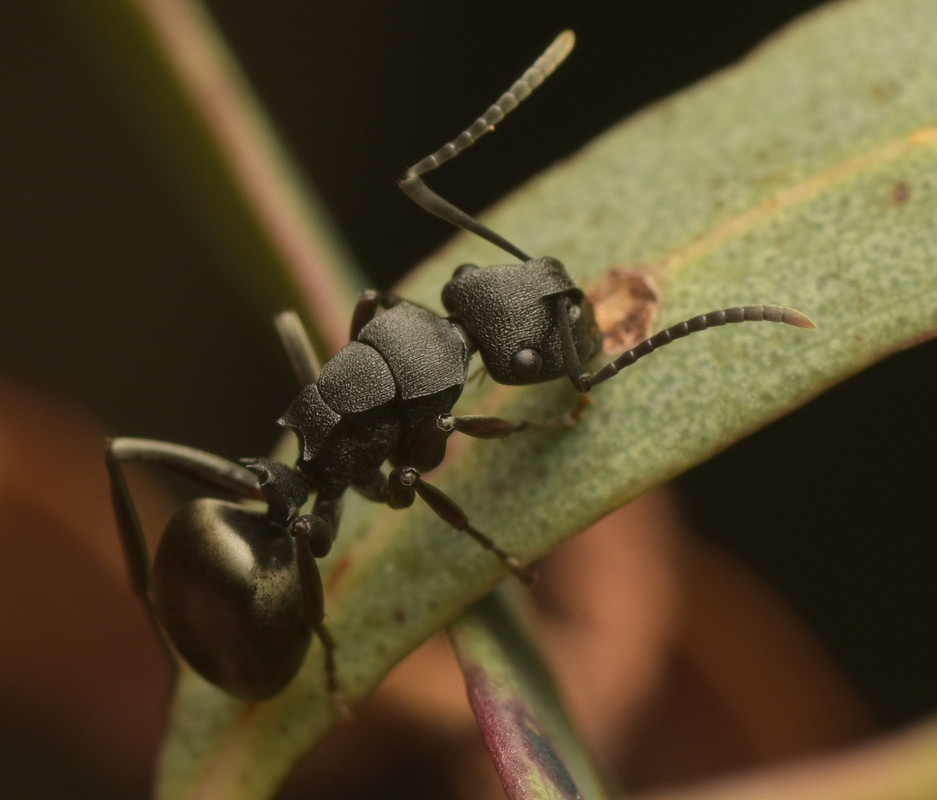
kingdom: Animalia
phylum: Arthropoda
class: Insecta
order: Hymenoptera
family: Formicidae
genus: Polyrhachis
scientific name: Polyrhachis phryne
